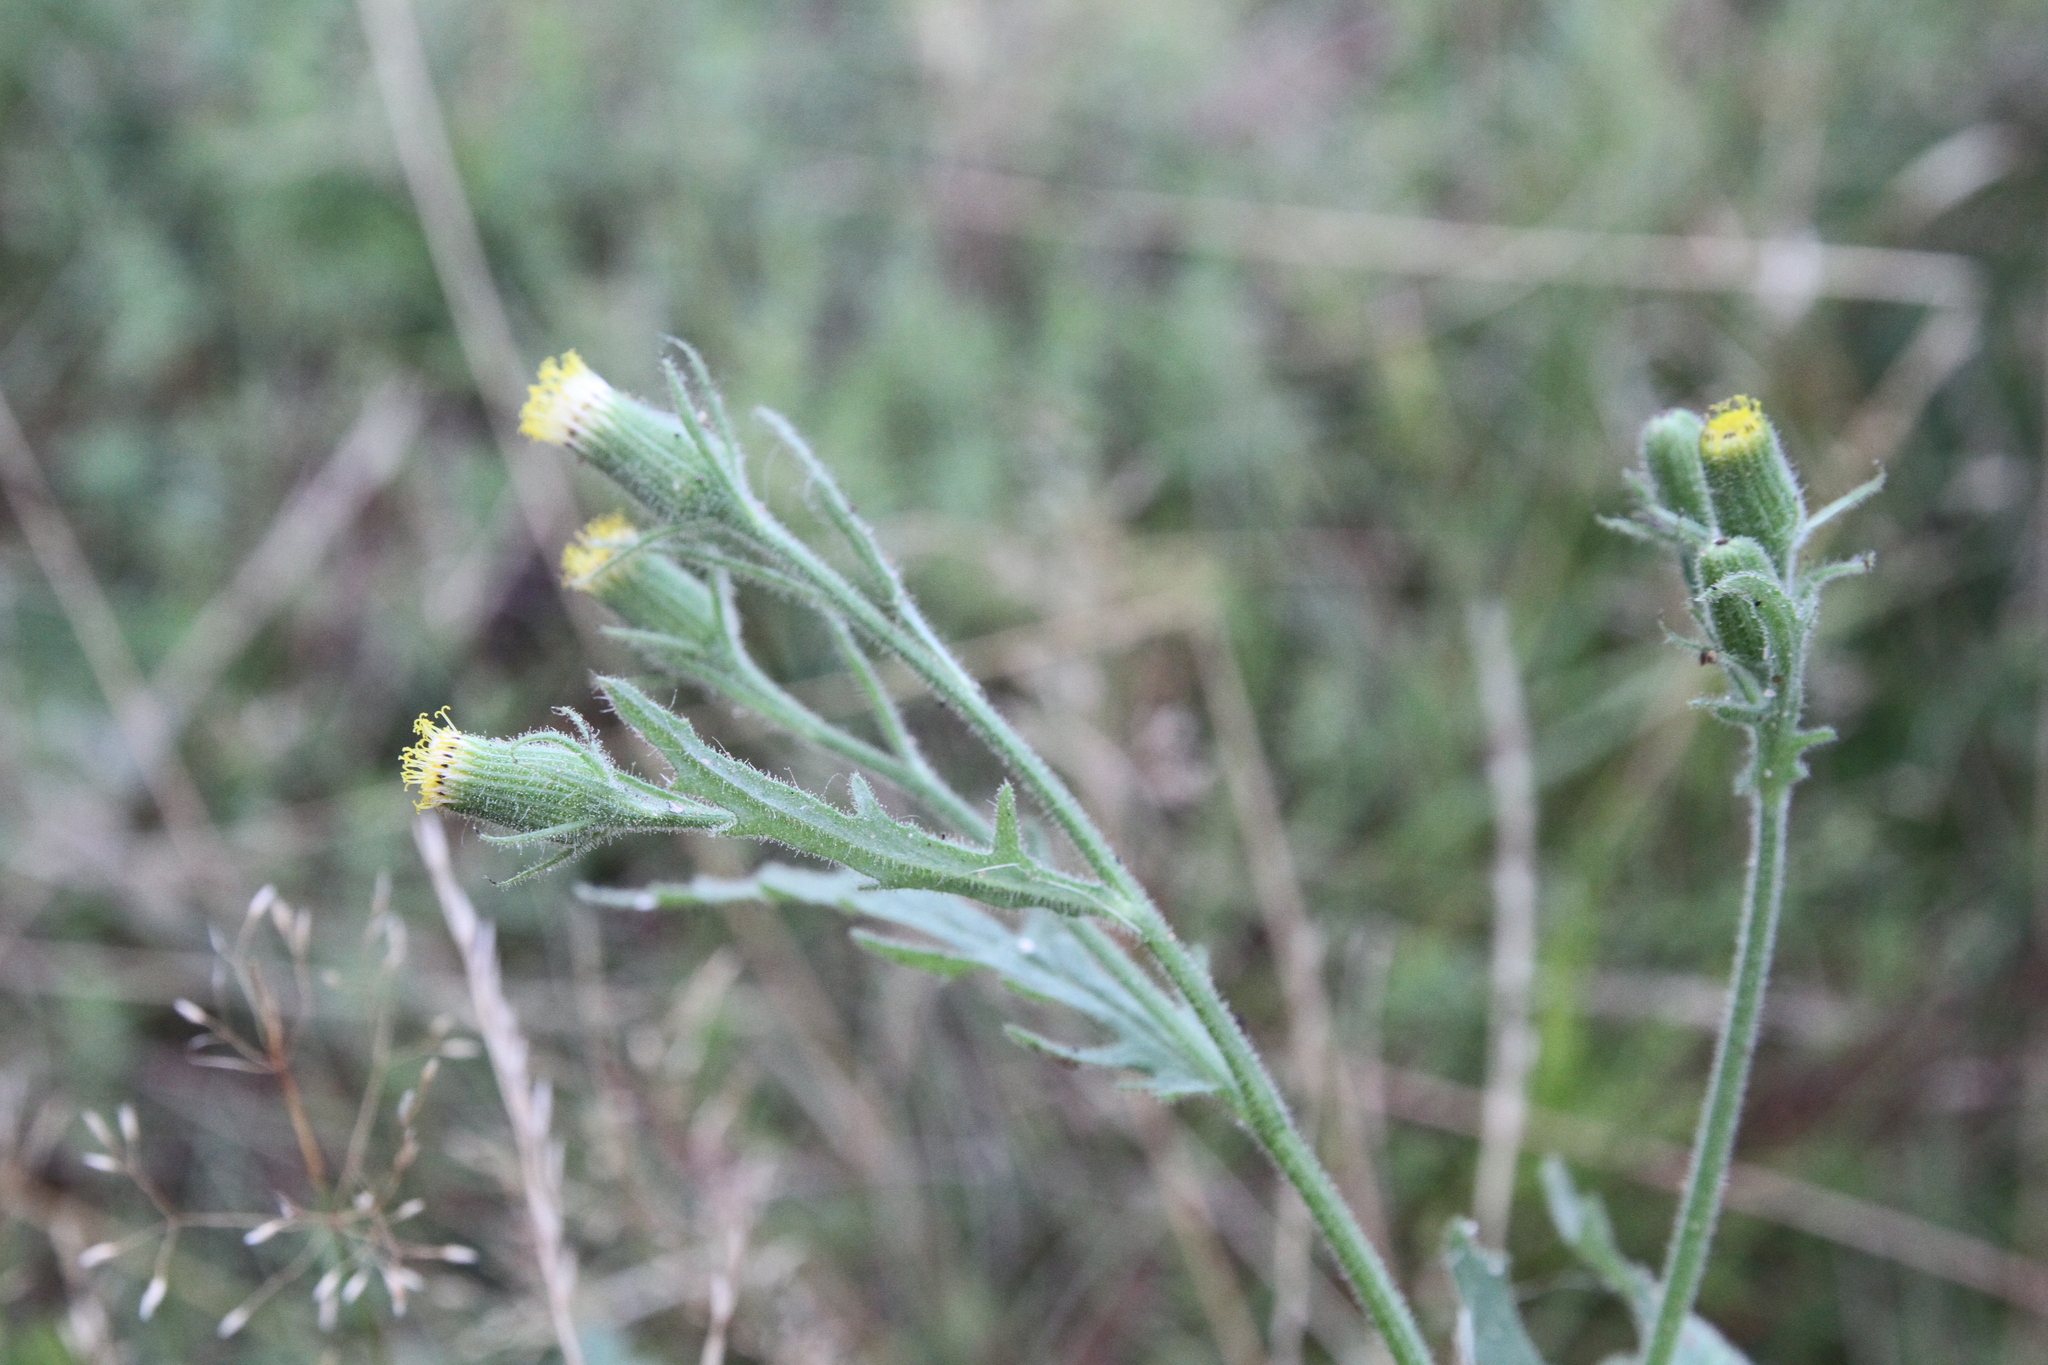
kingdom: Plantae
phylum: Tracheophyta
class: Magnoliopsida
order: Asterales
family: Asteraceae
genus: Senecio
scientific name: Senecio viscosus
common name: Sticky groundsel
